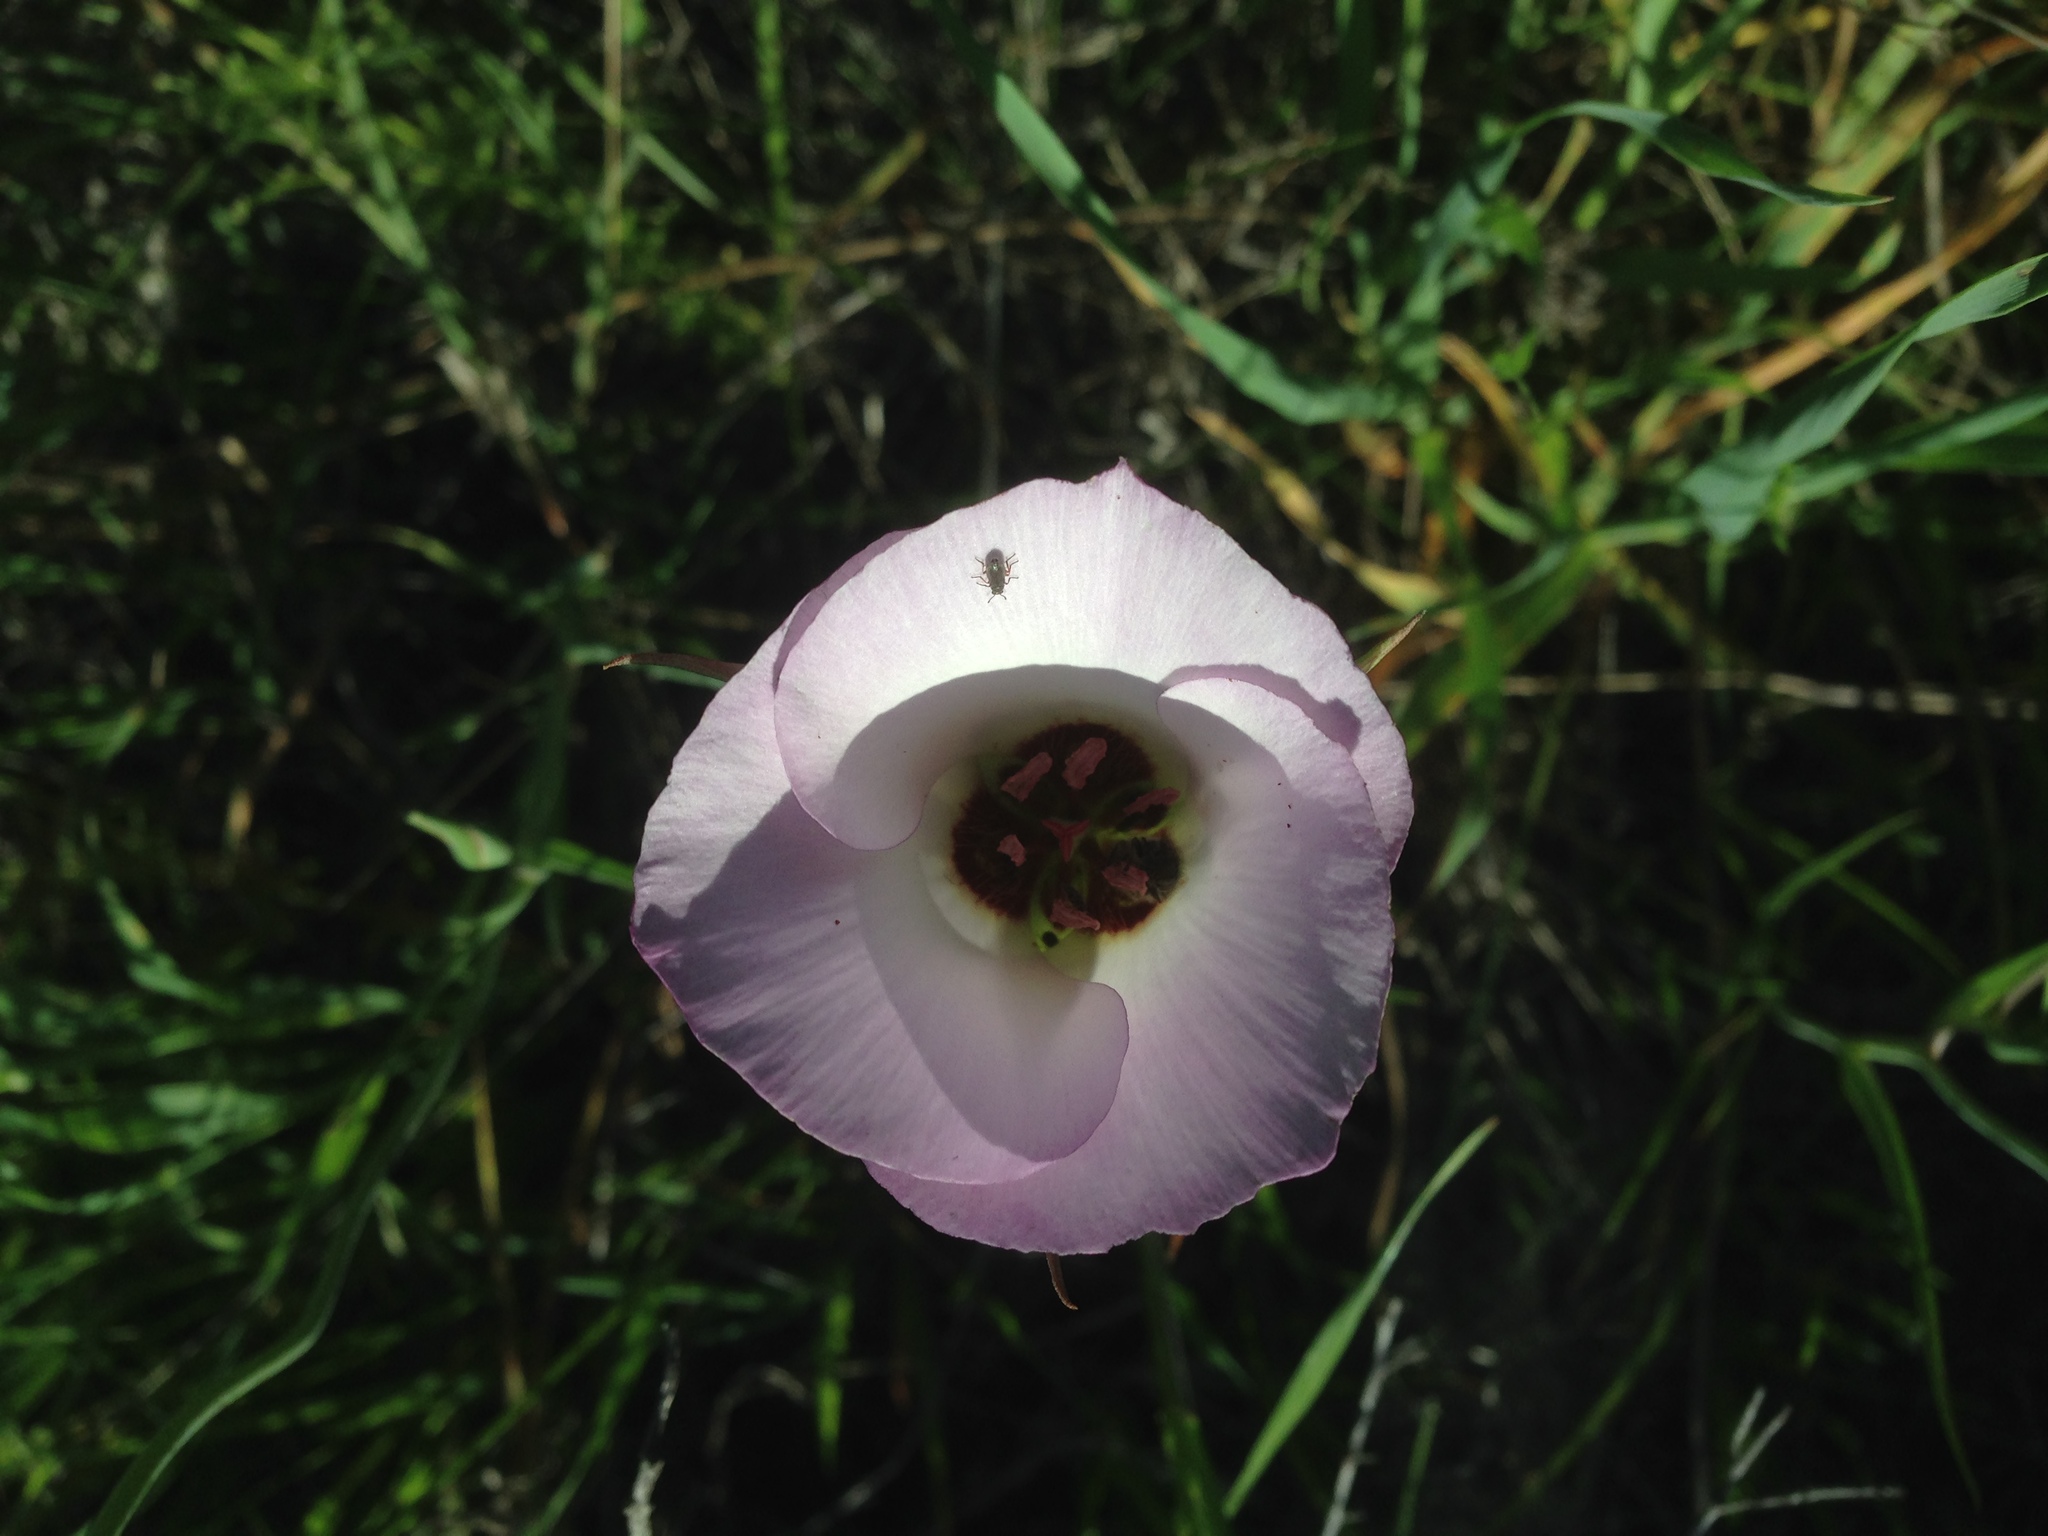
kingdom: Plantae
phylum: Tracheophyta
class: Liliopsida
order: Liliales
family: Liliaceae
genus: Calochortus
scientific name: Calochortus catalinae
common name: Catalina mariposa-lily
